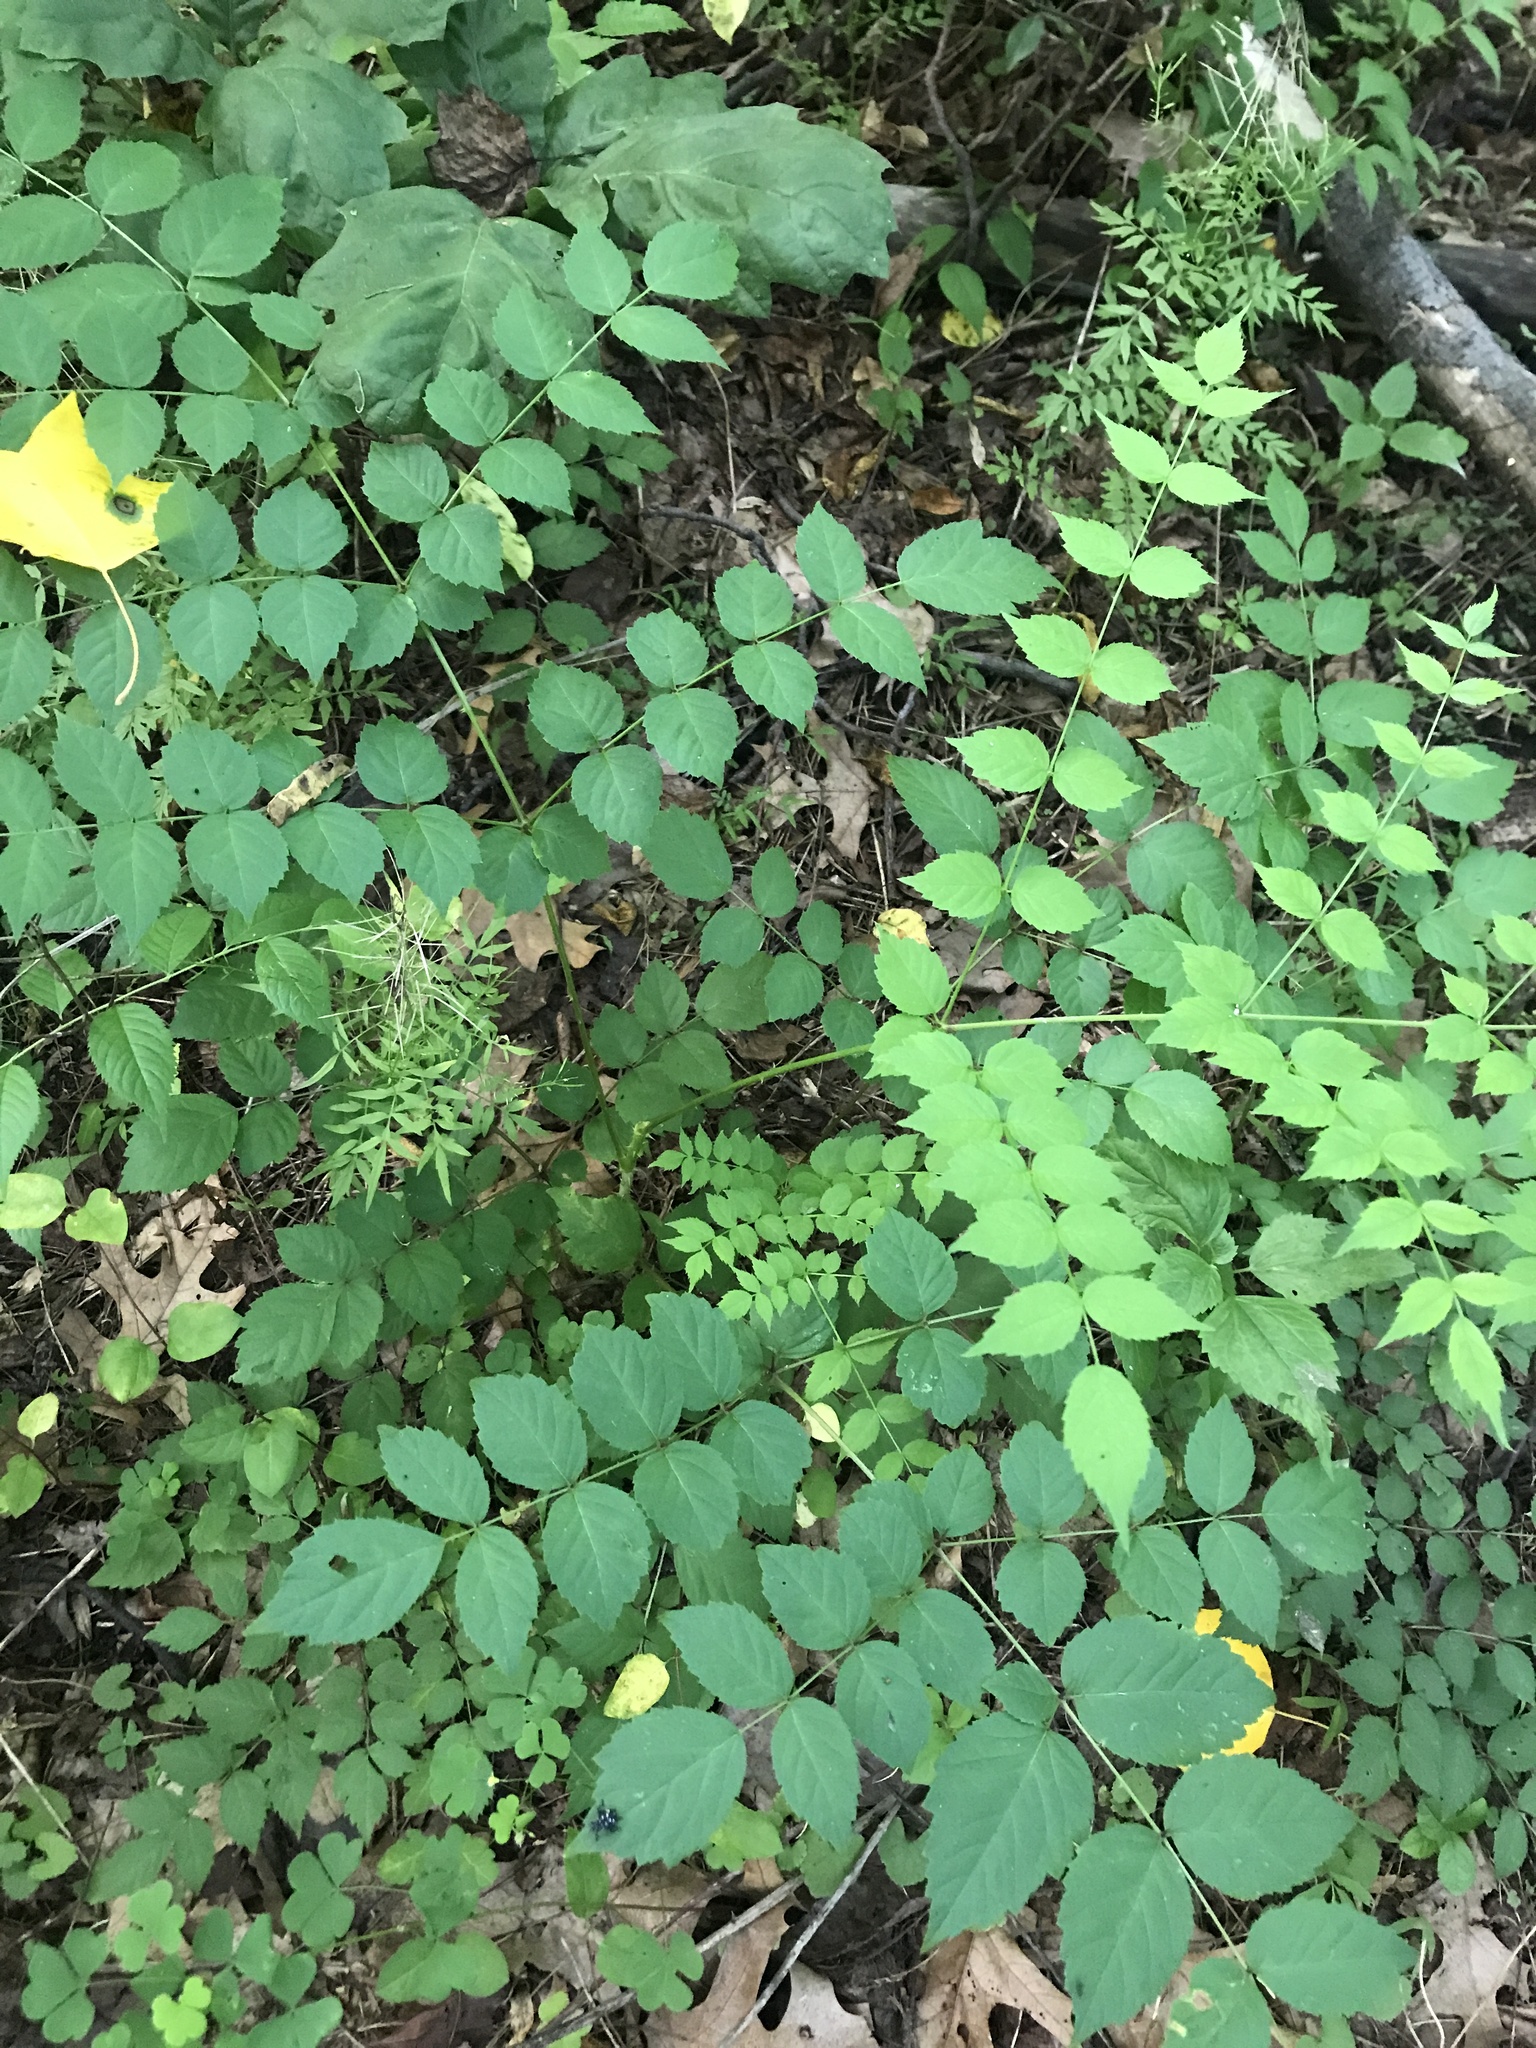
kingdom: Plantae
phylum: Tracheophyta
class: Magnoliopsida
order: Apiales
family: Araliaceae
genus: Aralia
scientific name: Aralia elata
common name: Japanese angelica-tree
